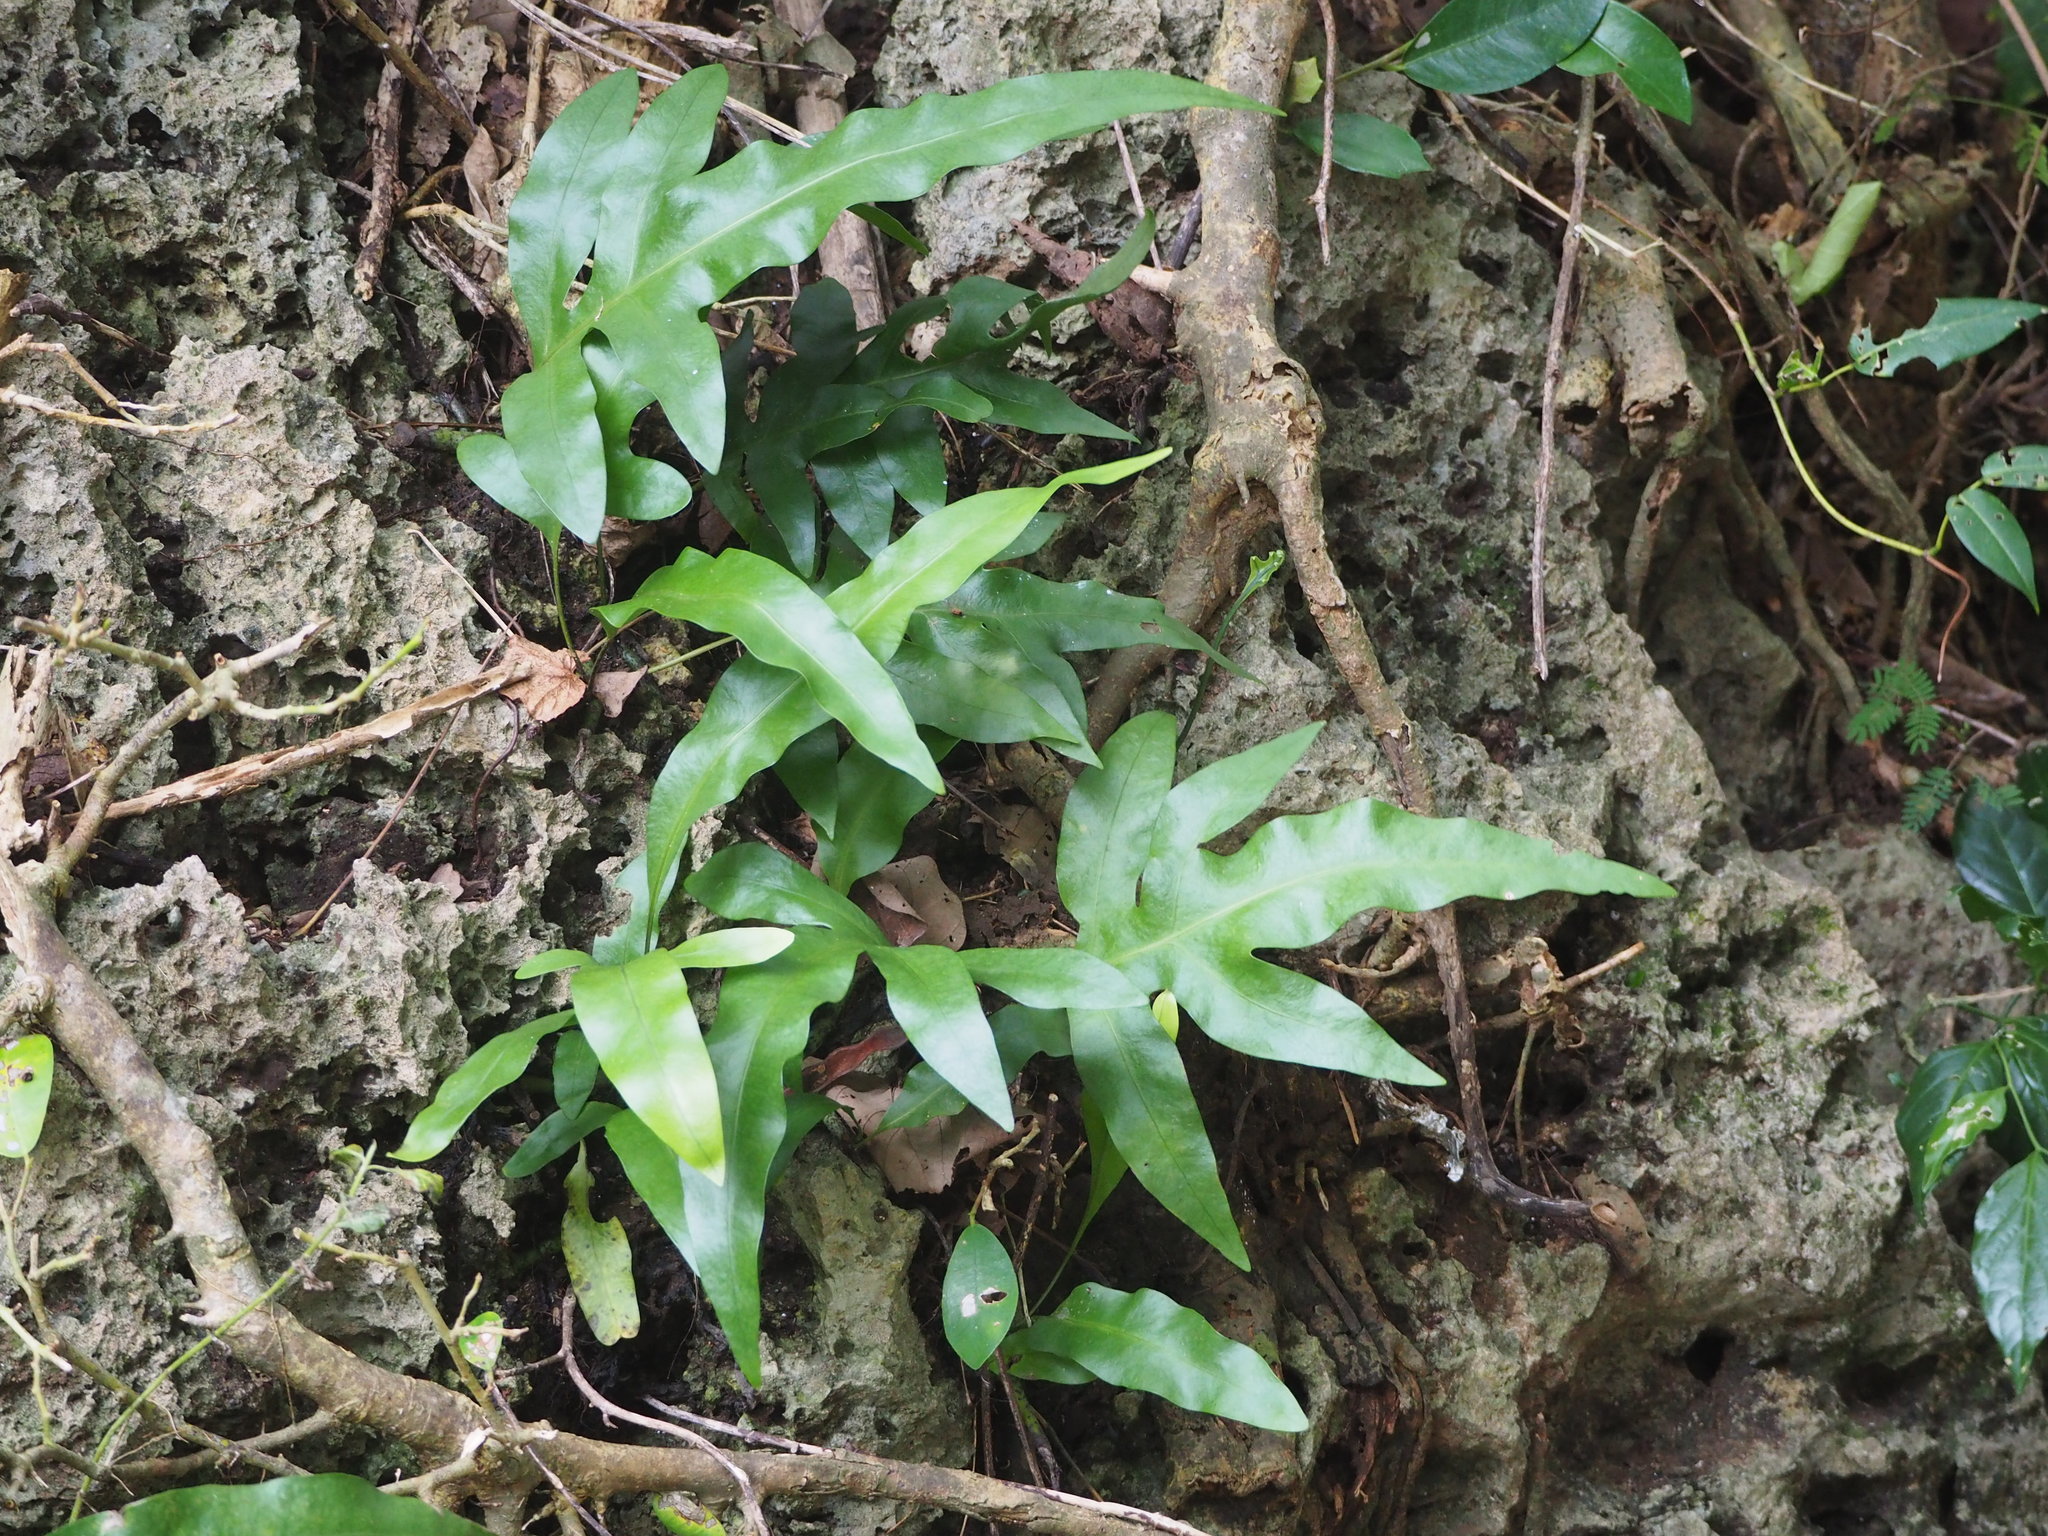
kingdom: Plantae
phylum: Tracheophyta
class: Polypodiopsida
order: Polypodiales
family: Polypodiaceae
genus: Microsorum
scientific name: Microsorum scolopendria
